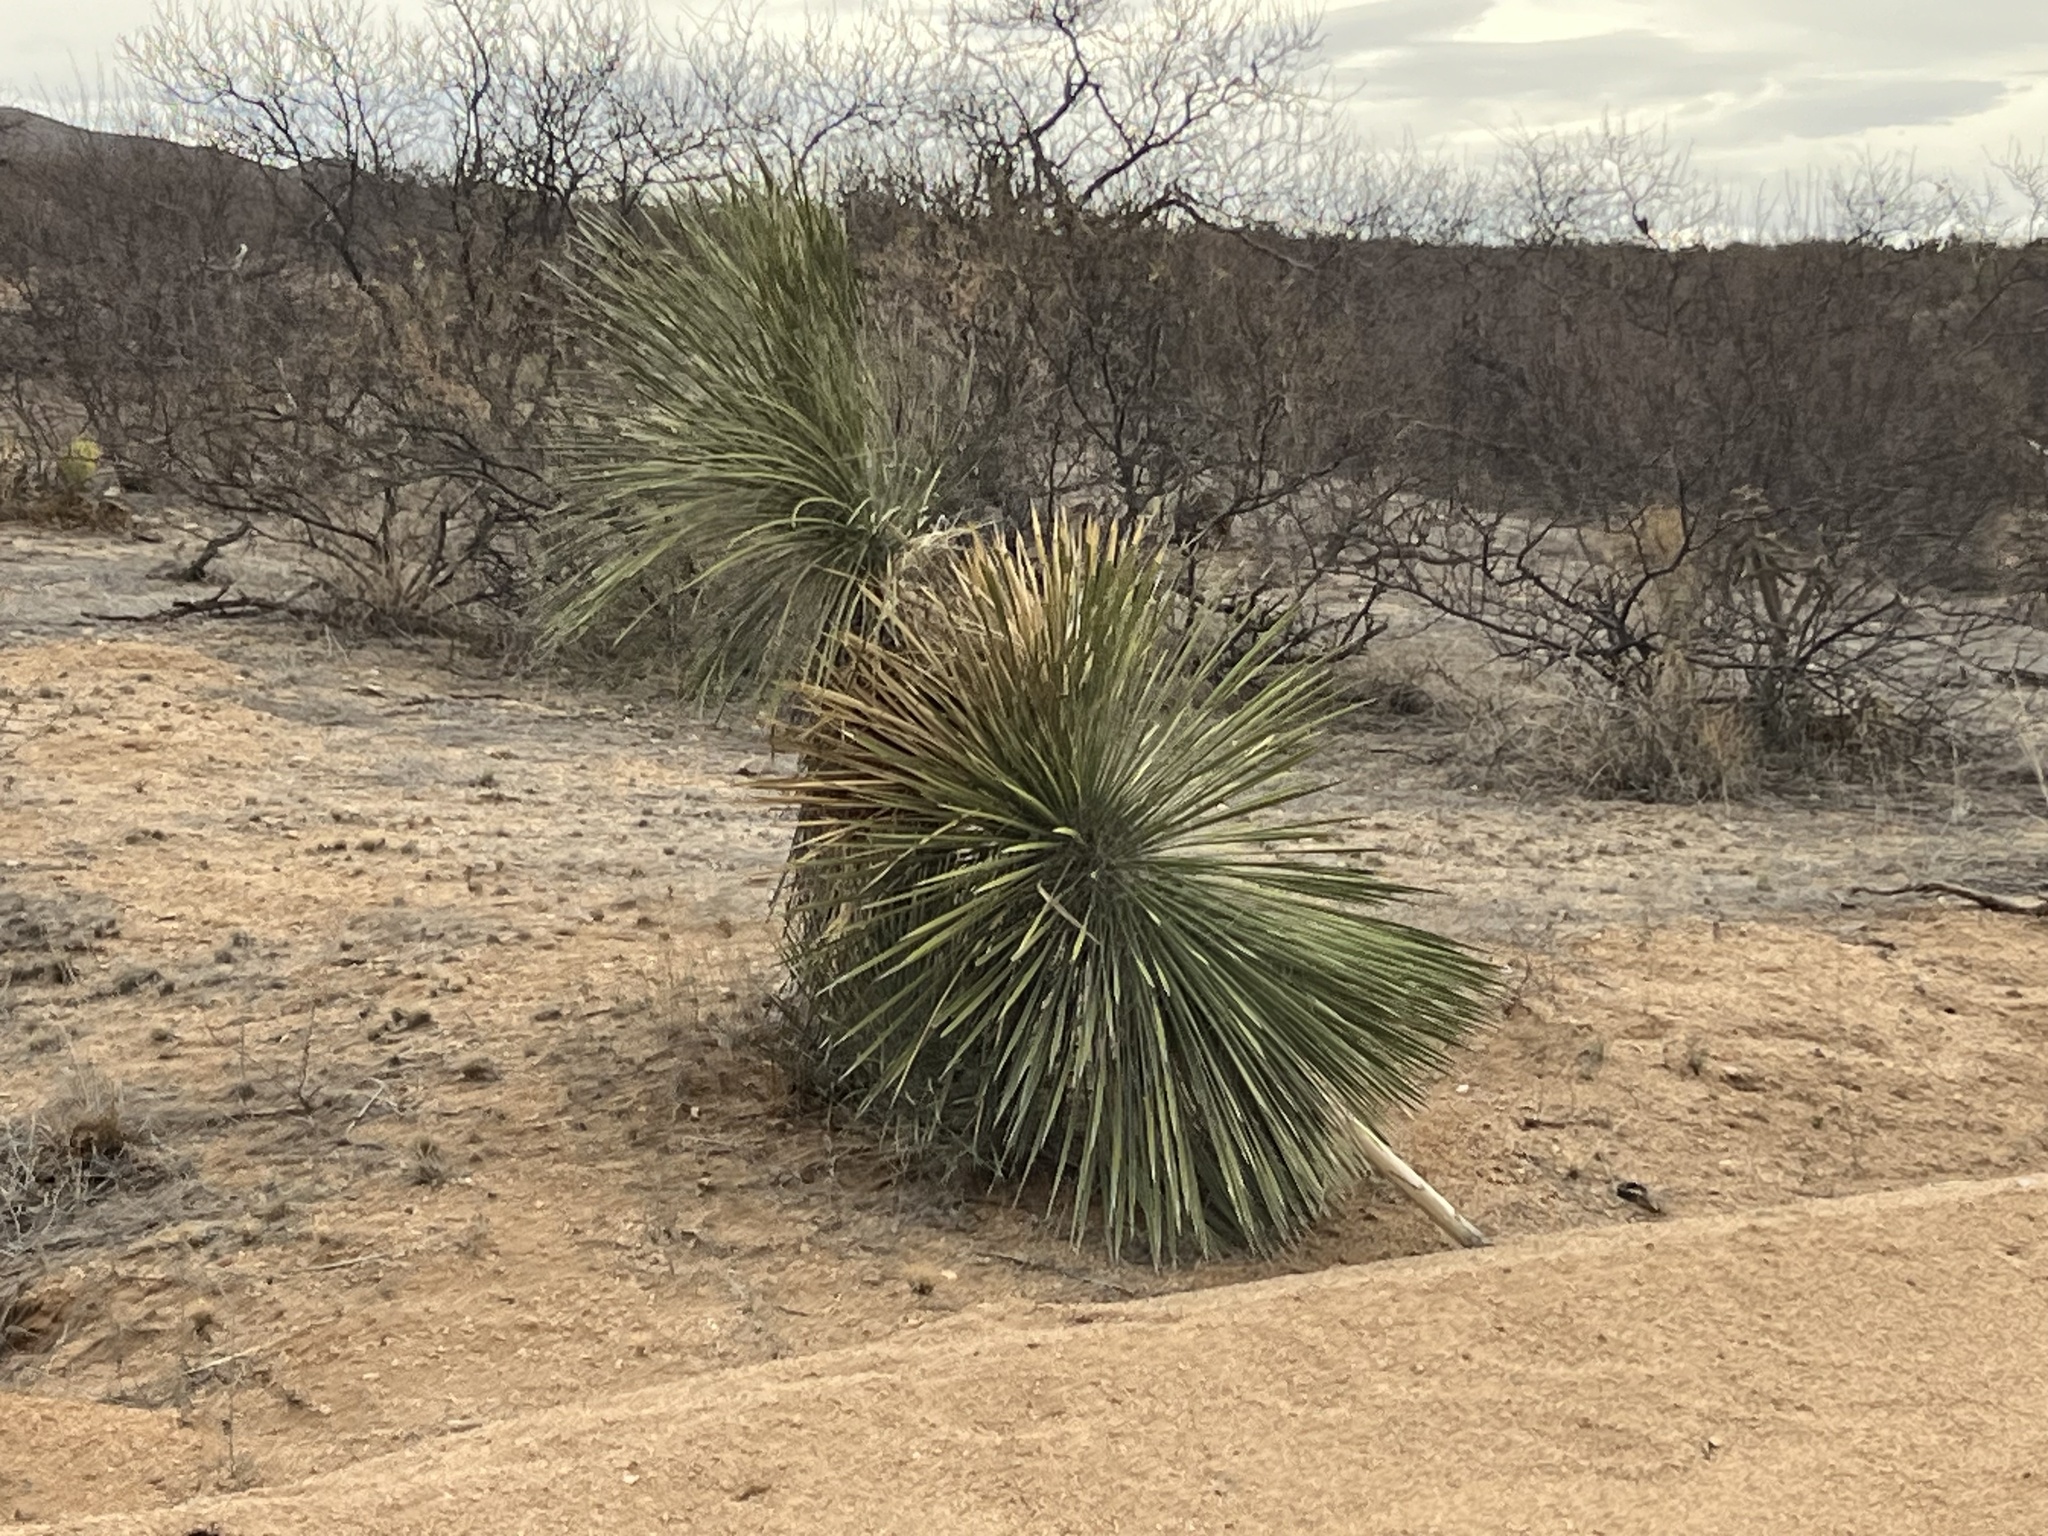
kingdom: Plantae
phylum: Tracheophyta
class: Liliopsida
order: Asparagales
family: Asparagaceae
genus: Yucca
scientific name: Yucca elata
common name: Palmella
